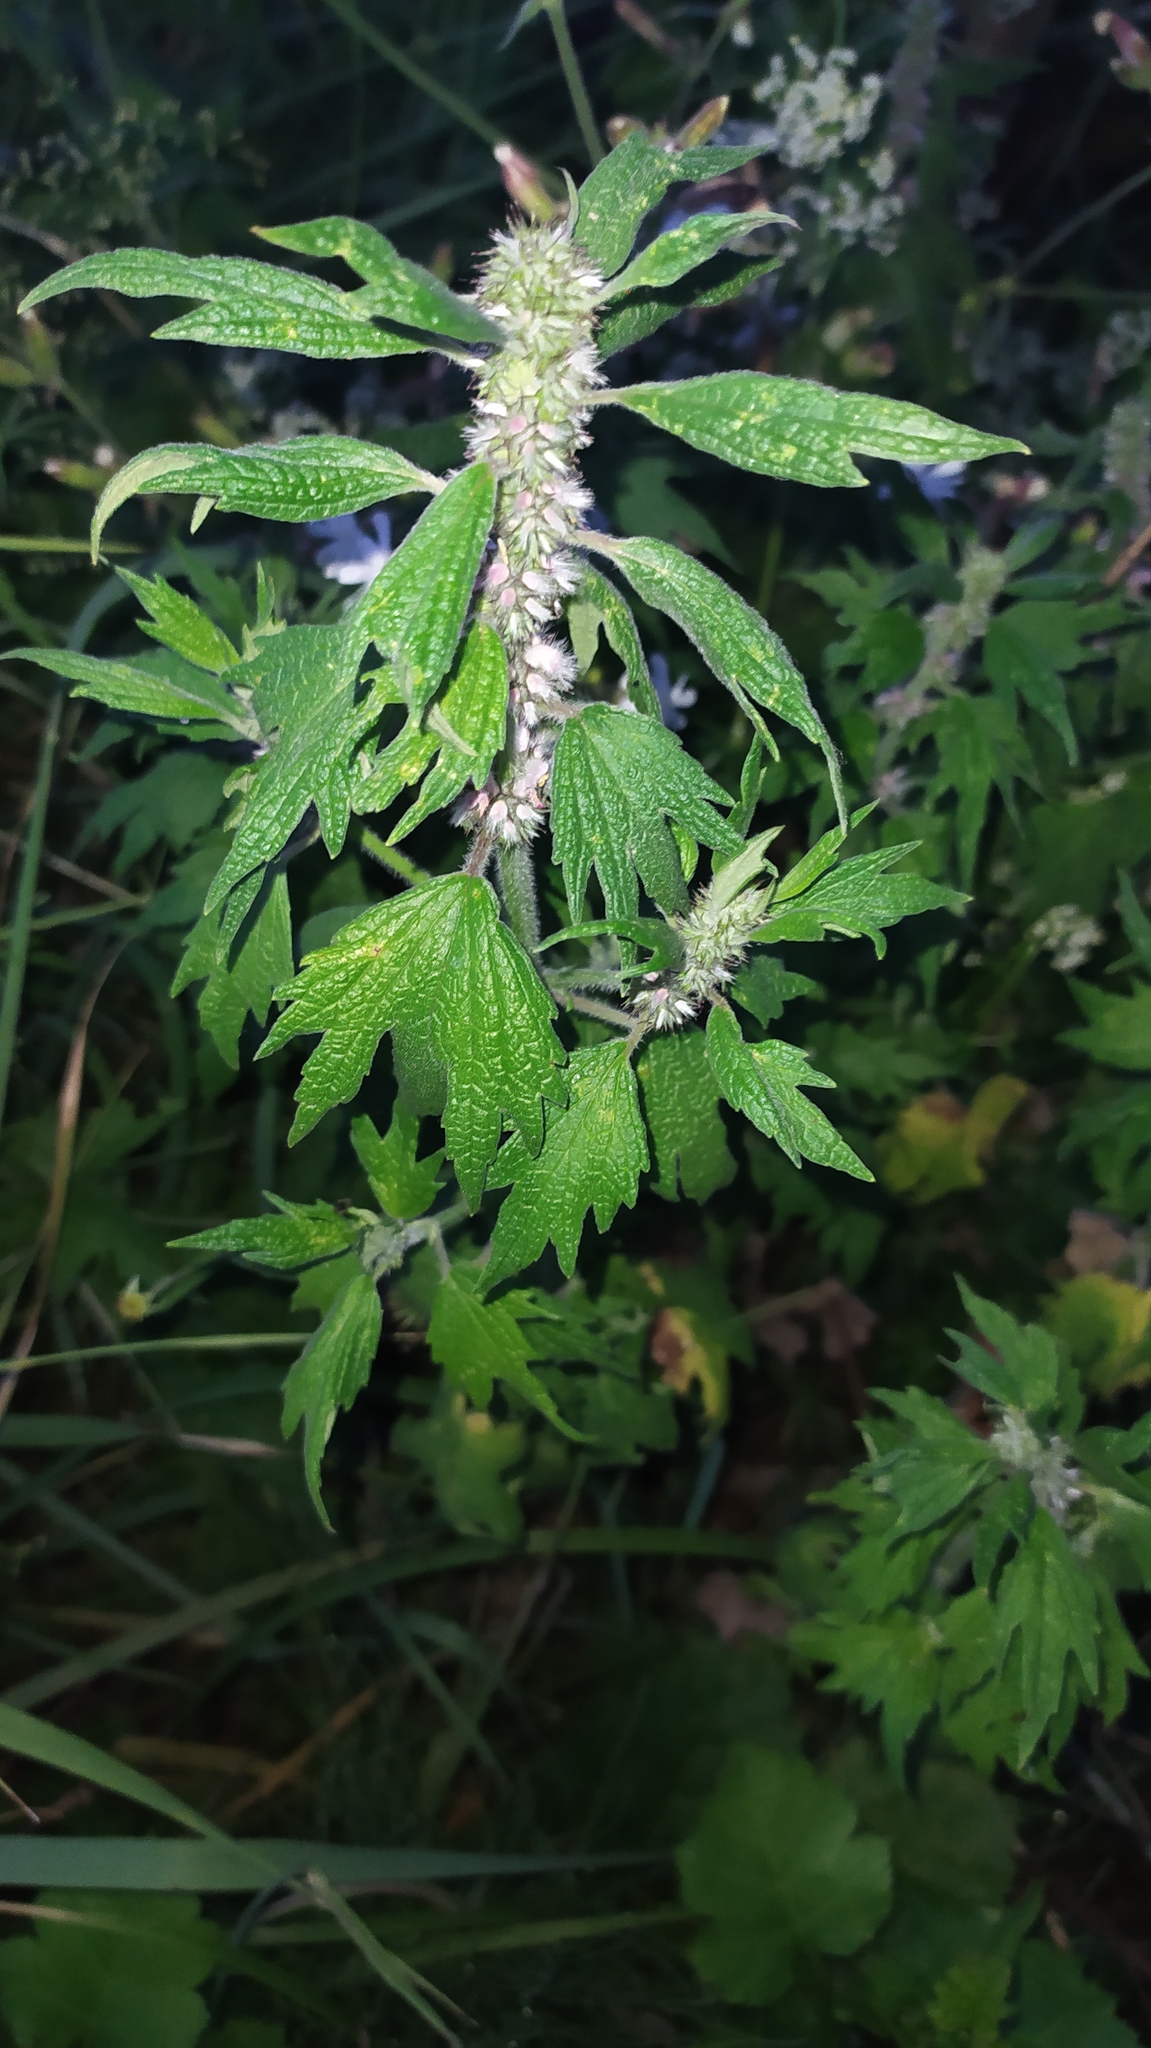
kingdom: Plantae
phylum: Tracheophyta
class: Magnoliopsida
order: Lamiales
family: Lamiaceae
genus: Leonurus
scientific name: Leonurus quinquelobatus
